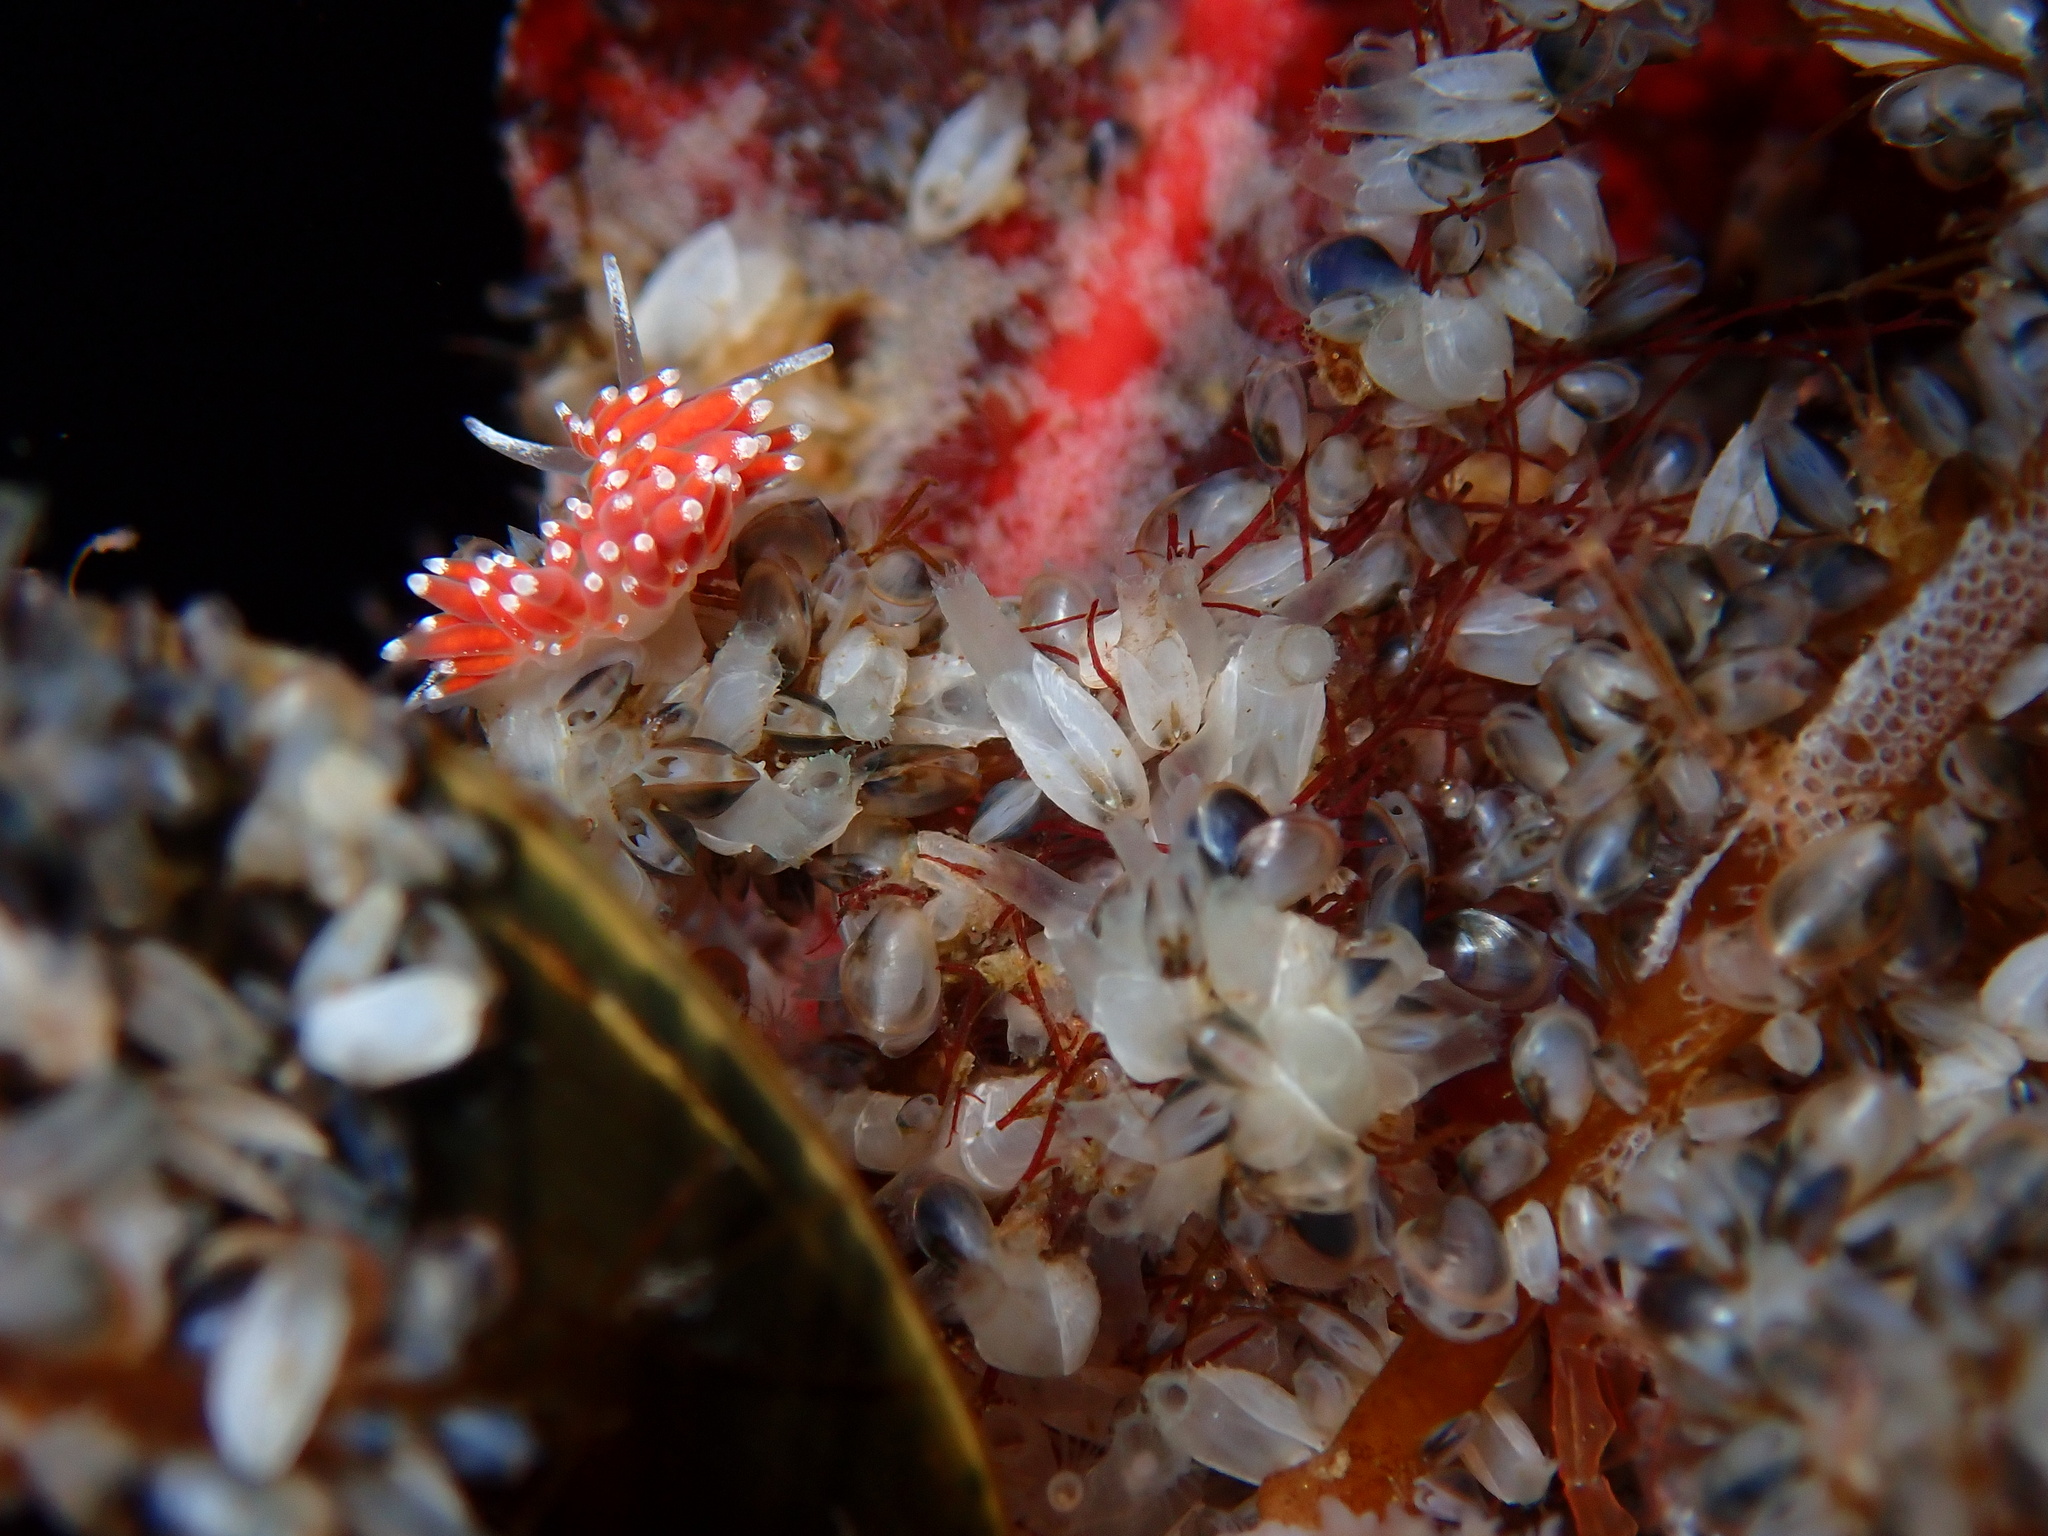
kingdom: Animalia
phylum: Mollusca
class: Gastropoda
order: Nudibranchia
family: Coryphellidae
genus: Coryphella
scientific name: Coryphella gracilis
